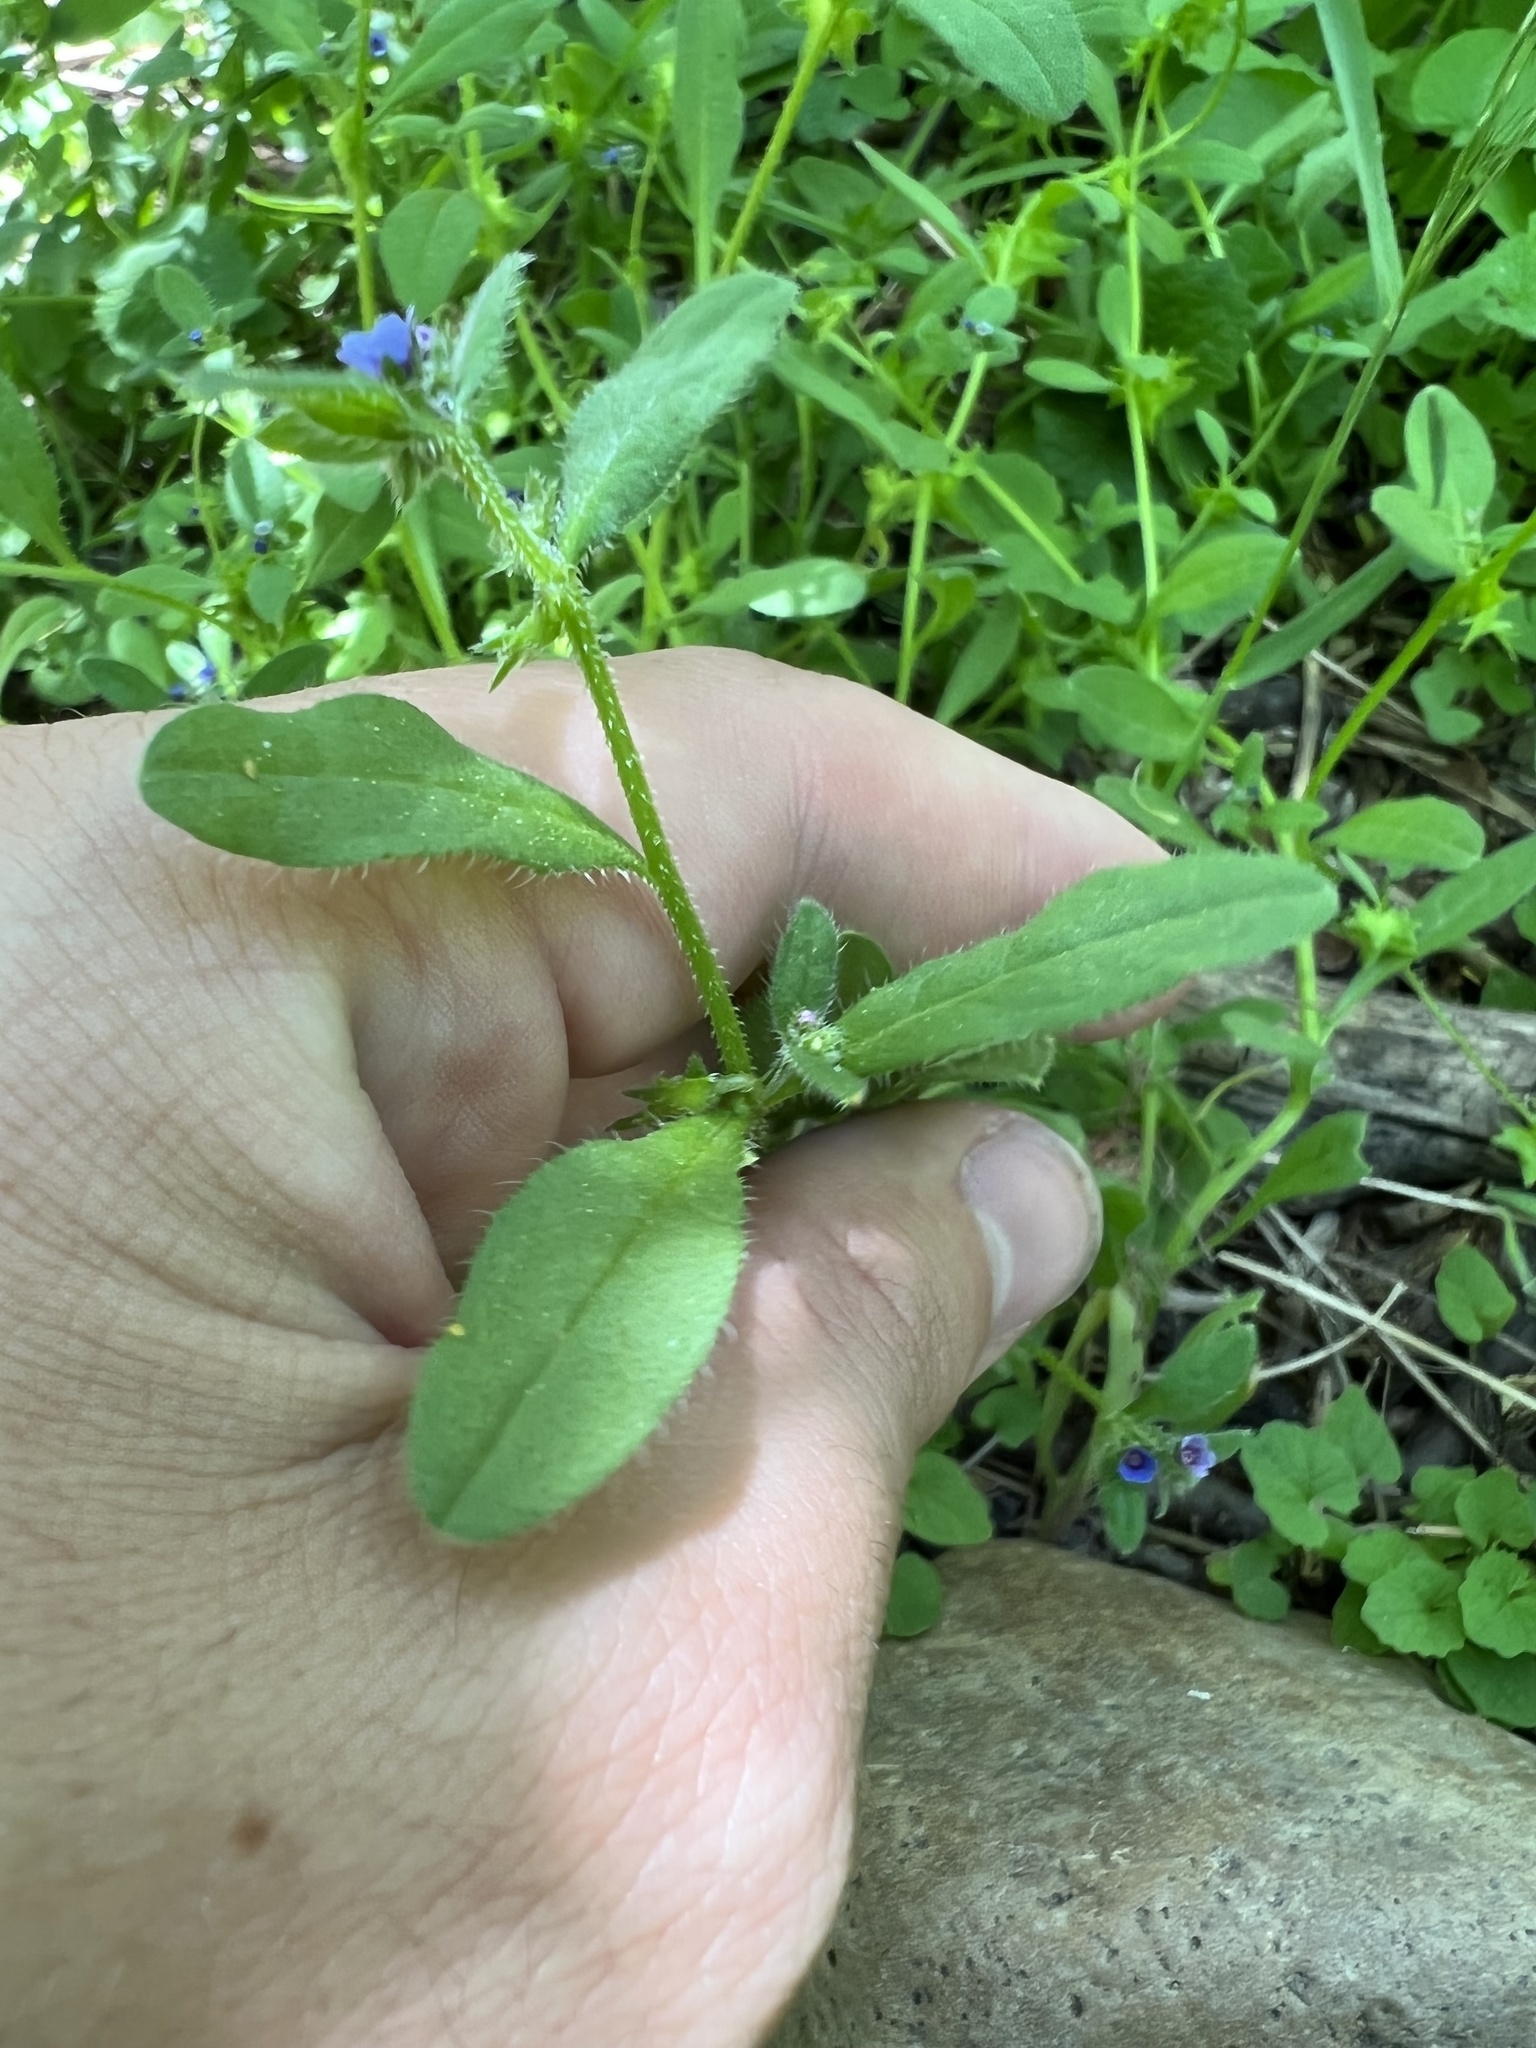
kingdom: Plantae
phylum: Tracheophyta
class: Magnoliopsida
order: Boraginales
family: Boraginaceae
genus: Asperugo
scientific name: Asperugo procumbens
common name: Madwort
